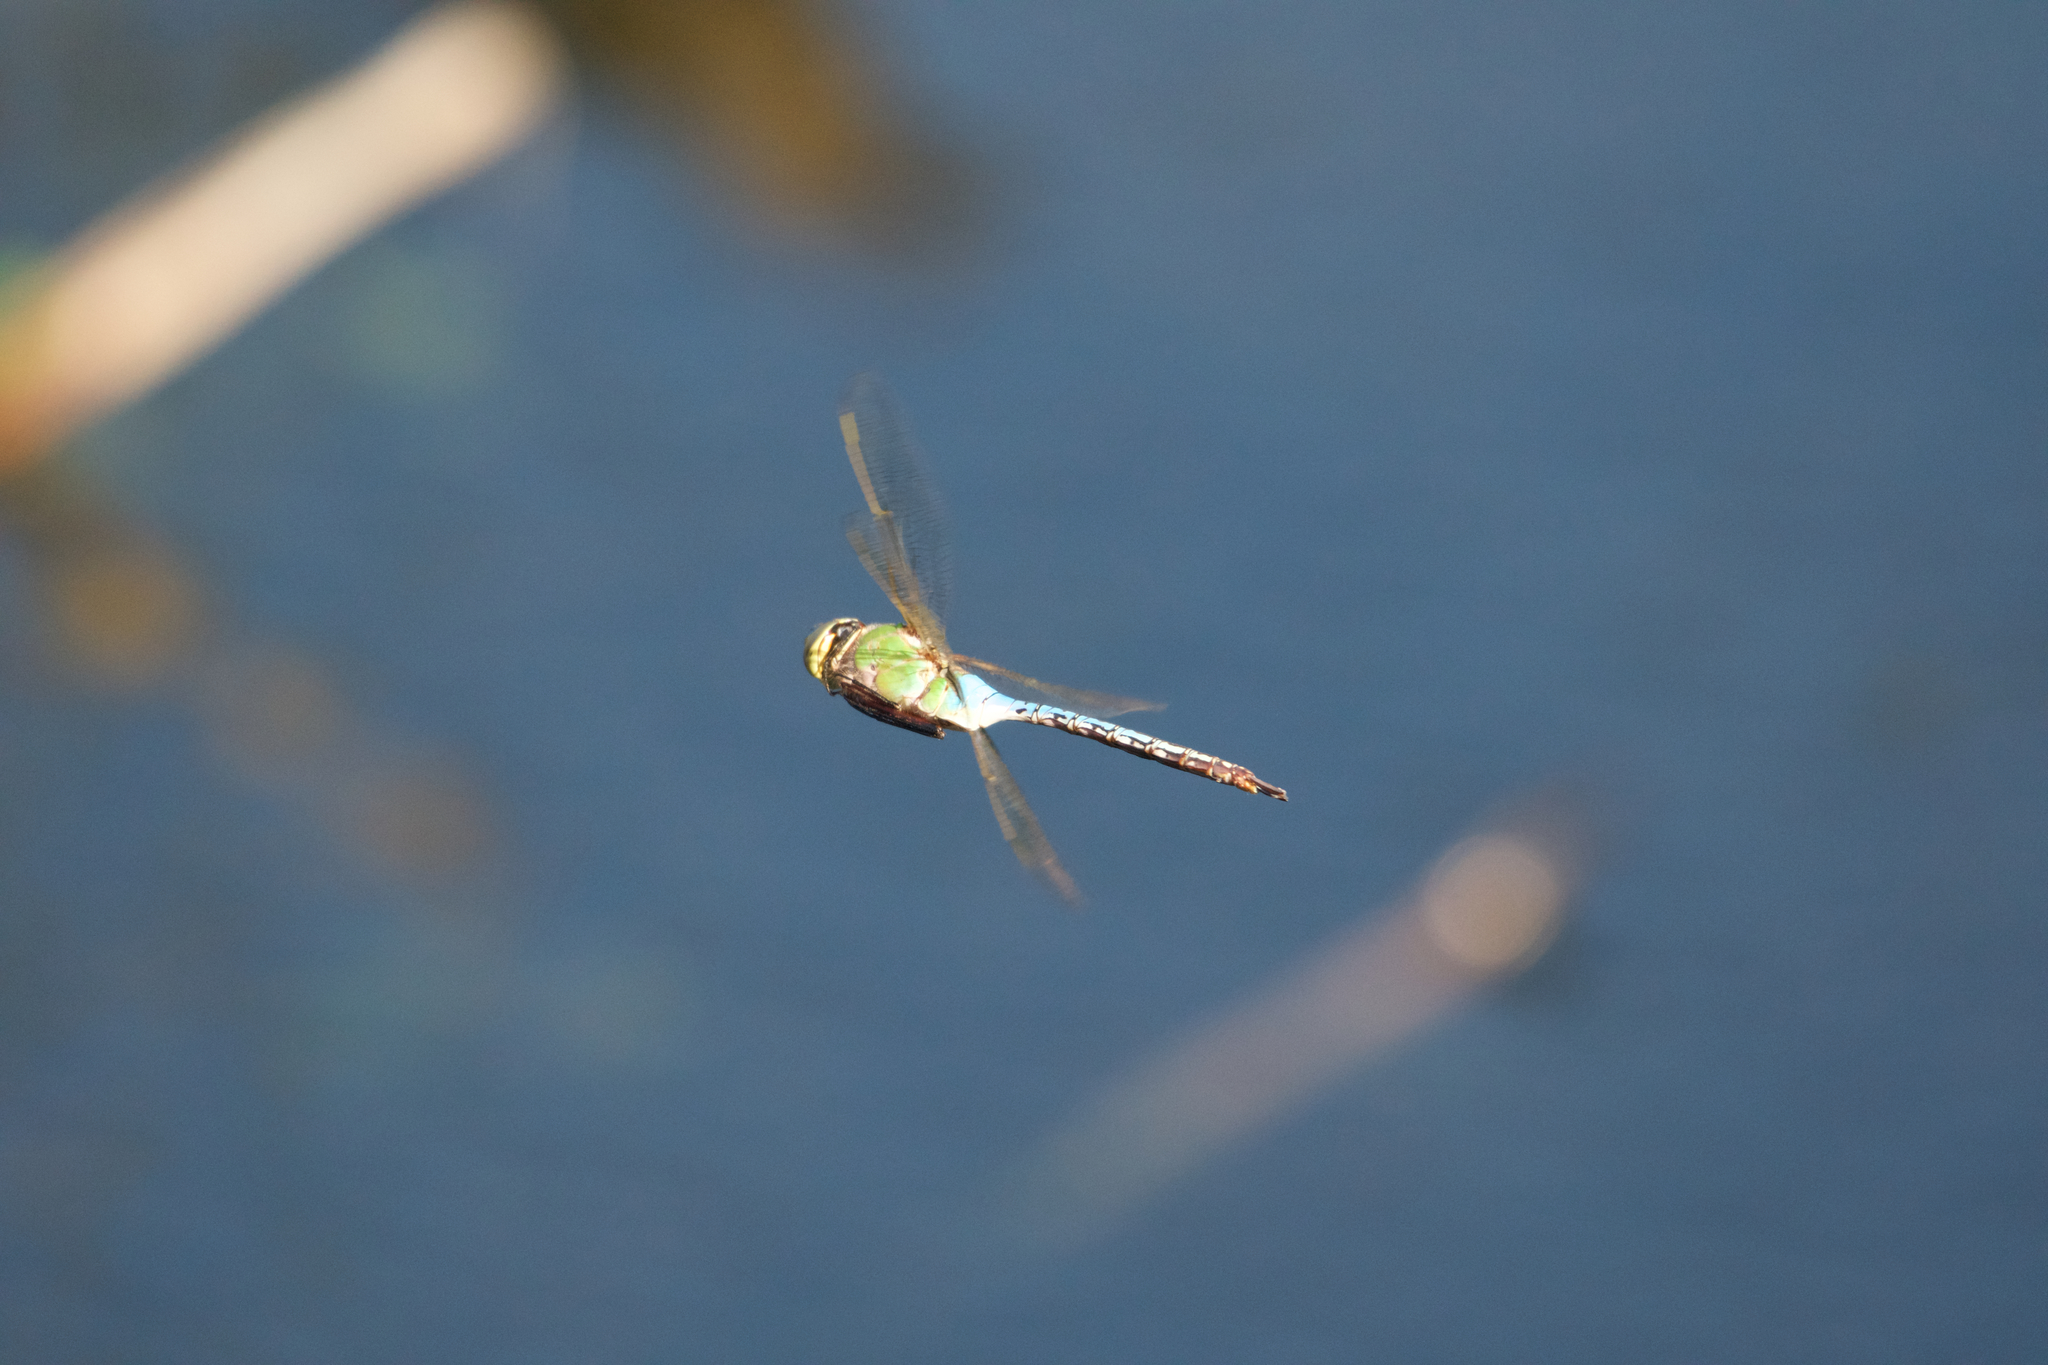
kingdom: Animalia
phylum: Arthropoda
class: Insecta
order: Odonata
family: Aeshnidae
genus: Anax
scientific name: Anax junius
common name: Common green darner
